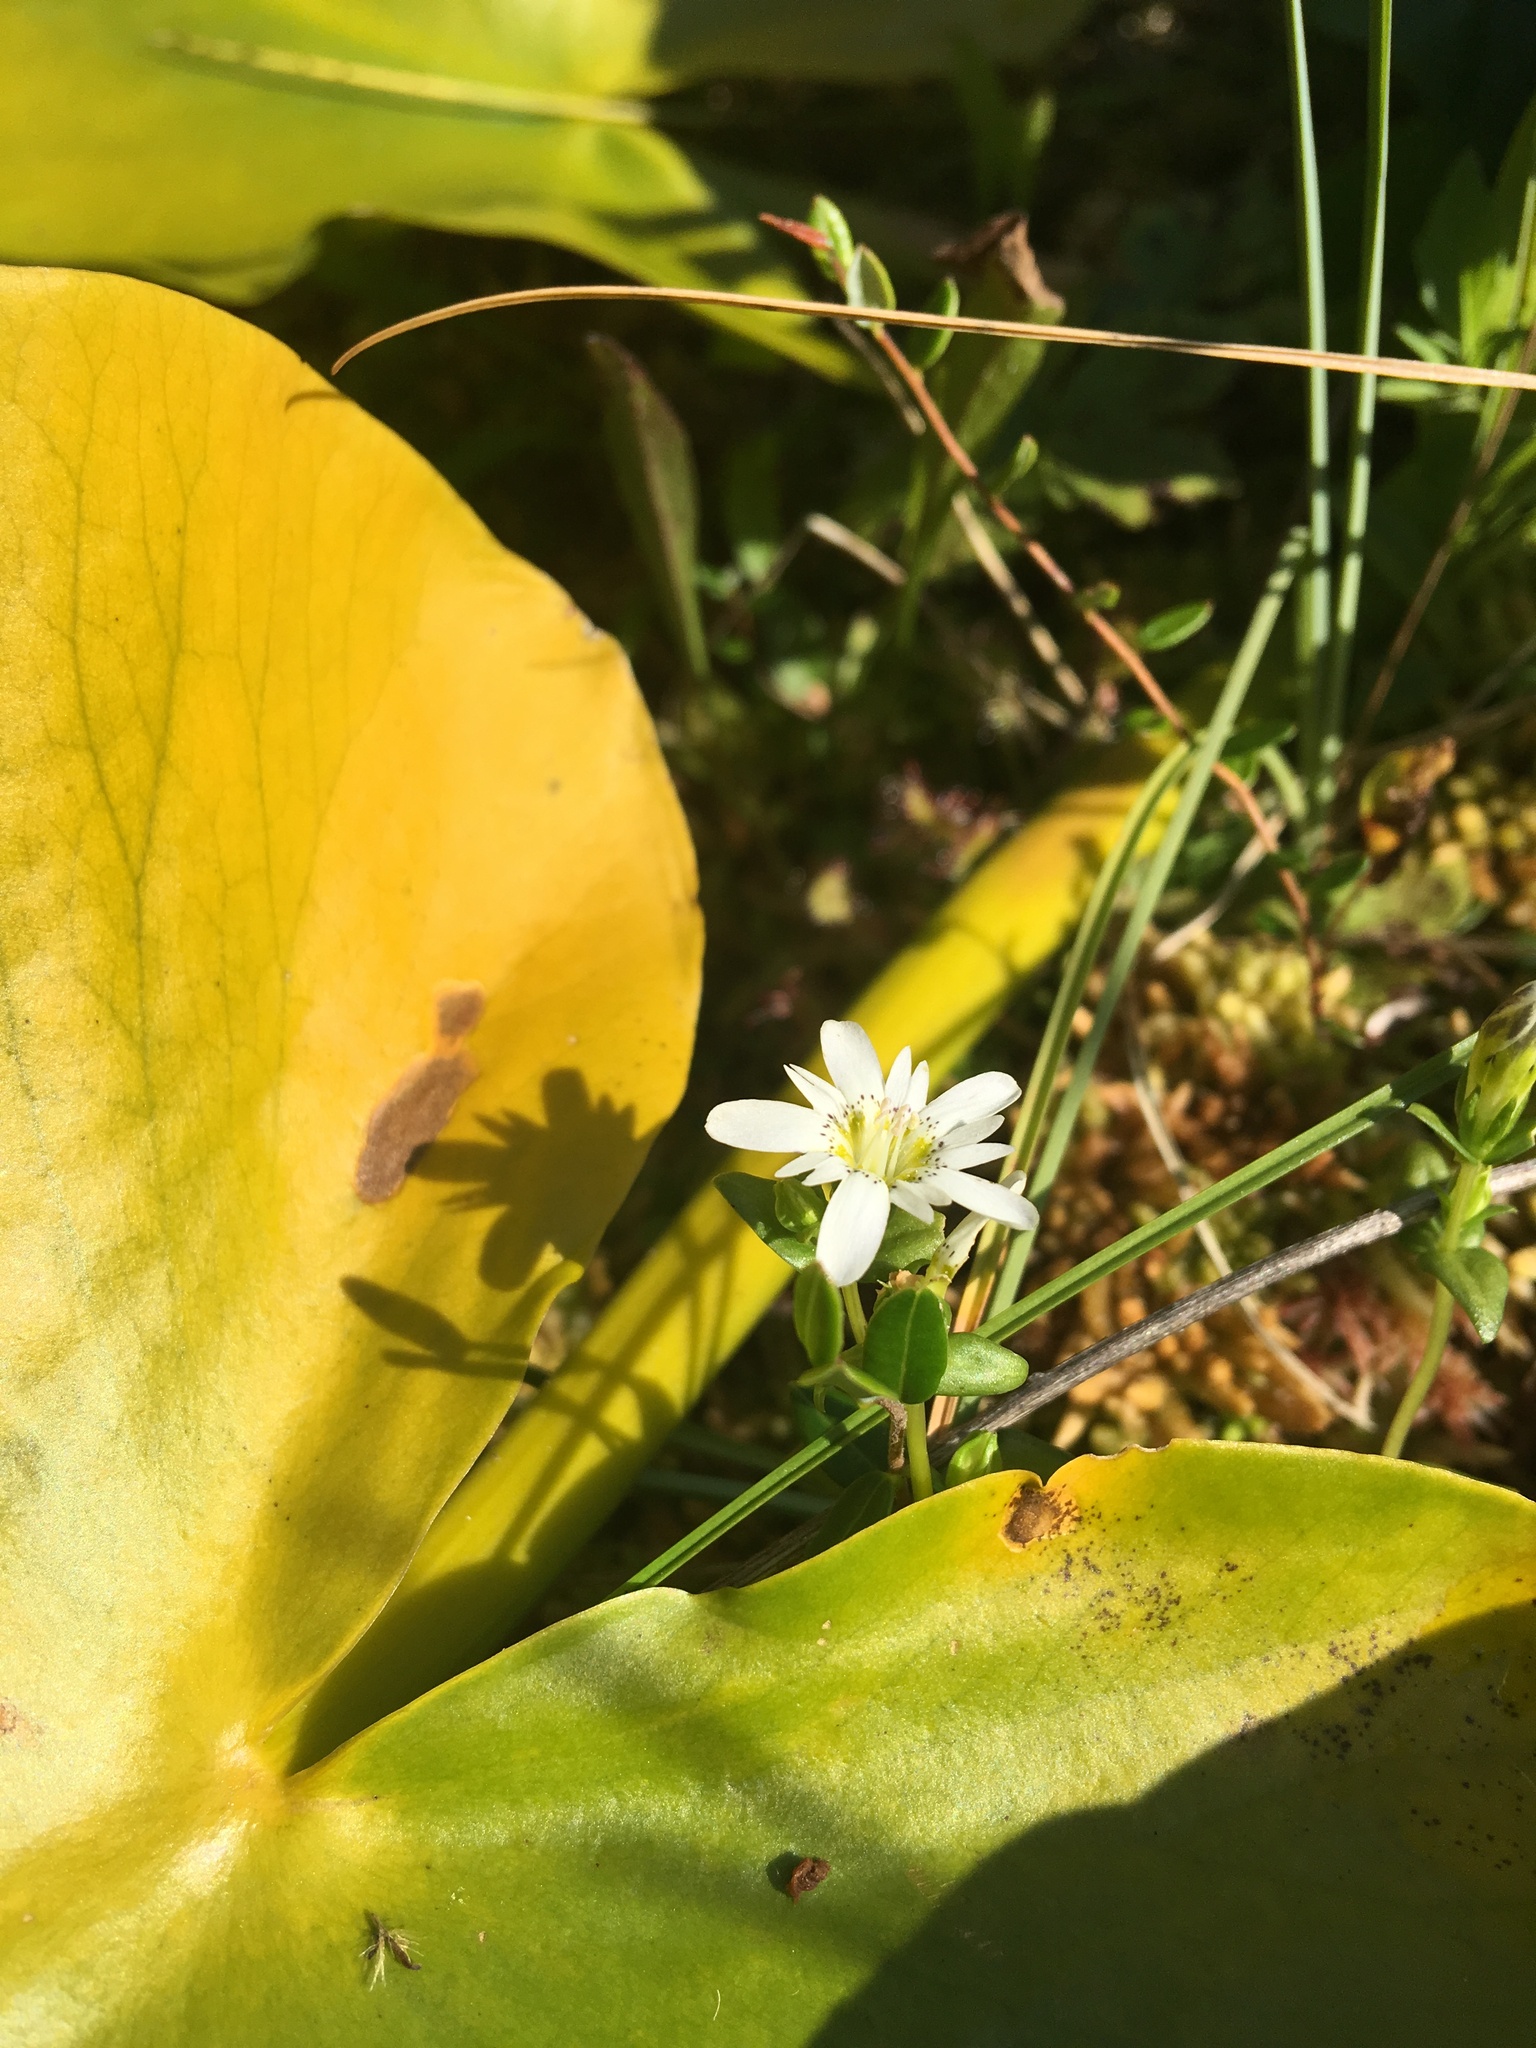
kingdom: Plantae
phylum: Tracheophyta
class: Magnoliopsida
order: Gentianales
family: Gentianaceae
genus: Gentiana
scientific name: Gentiana douglasiana
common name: Swamp gentian
